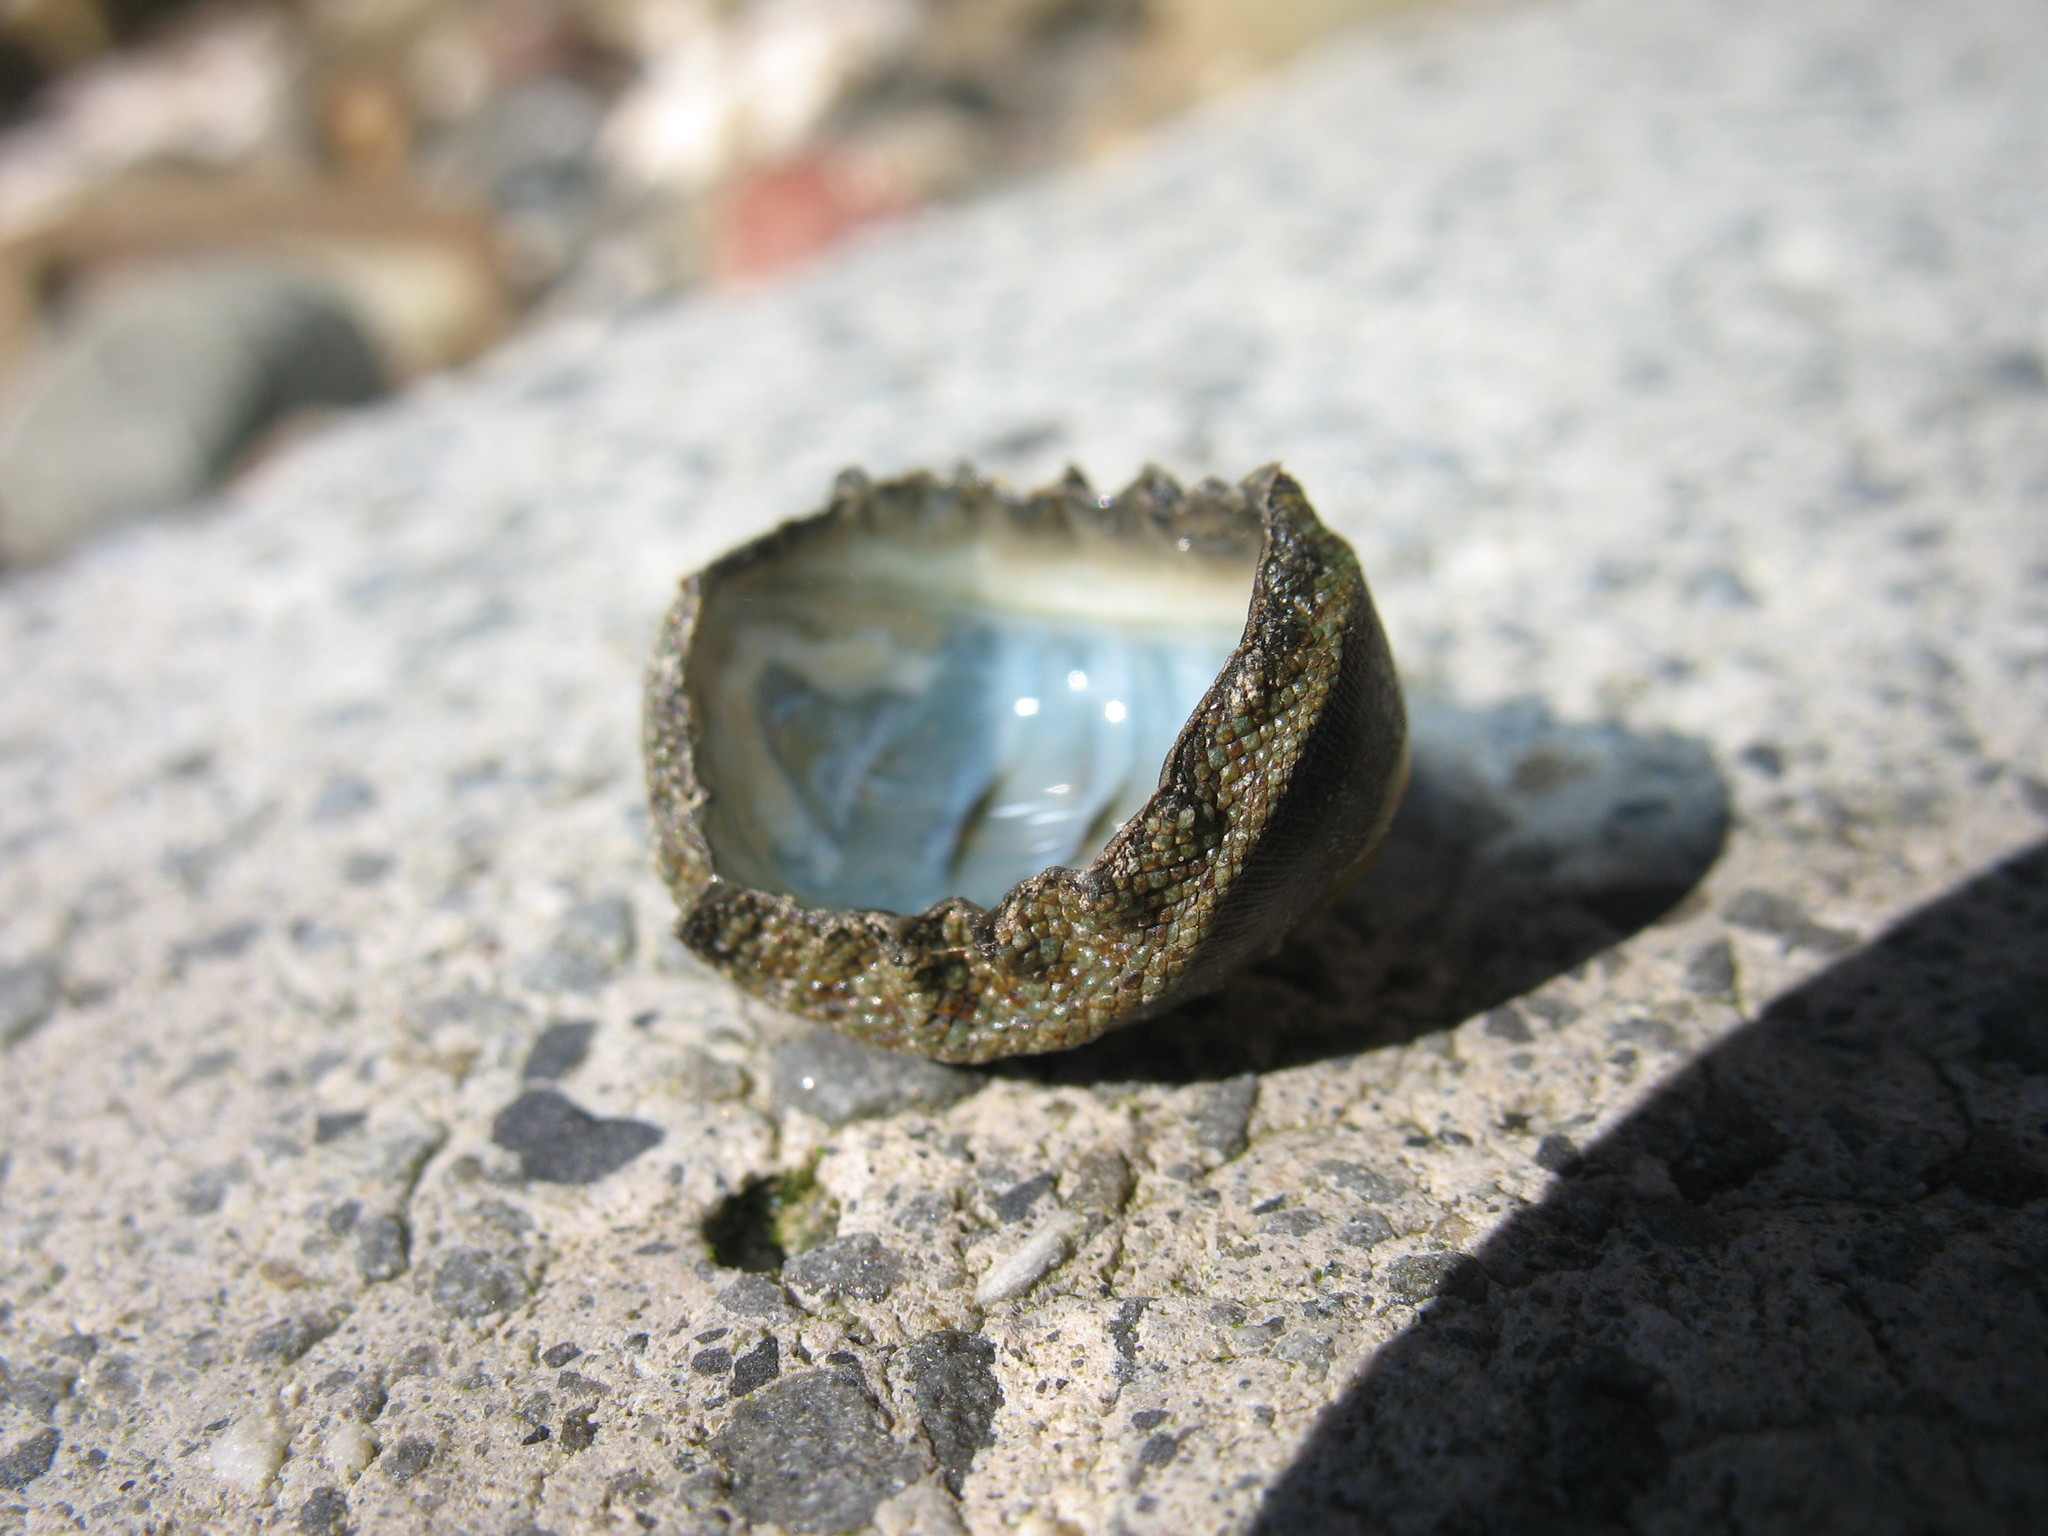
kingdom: Animalia
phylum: Mollusca
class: Polyplacophora
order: Chitonida
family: Chitonidae
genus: Chiton
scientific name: Chiton glaucus
